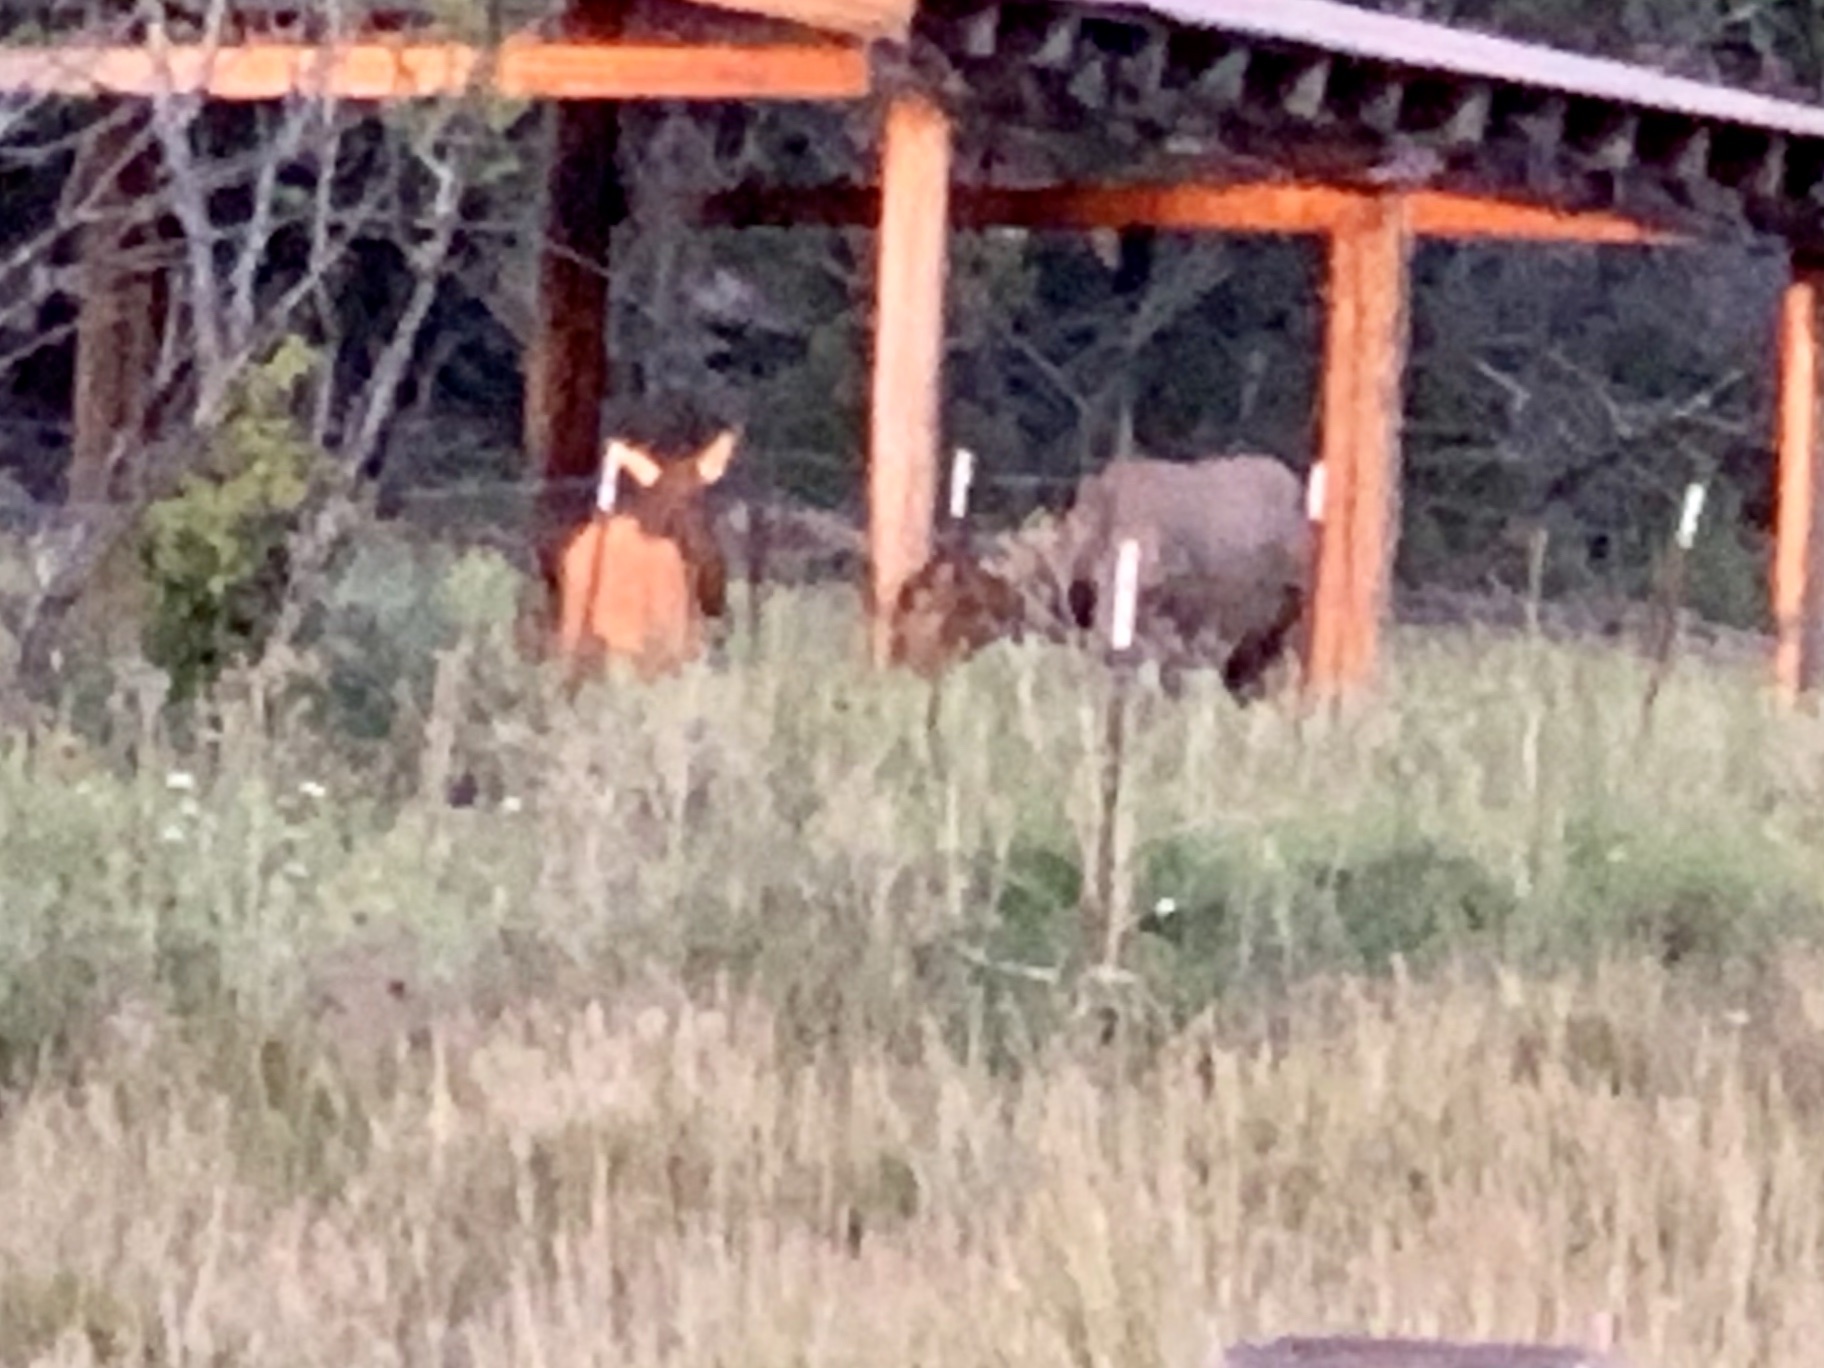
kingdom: Animalia
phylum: Chordata
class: Mammalia
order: Artiodactyla
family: Cervidae
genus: Cervus
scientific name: Cervus elaphus
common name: Red deer
